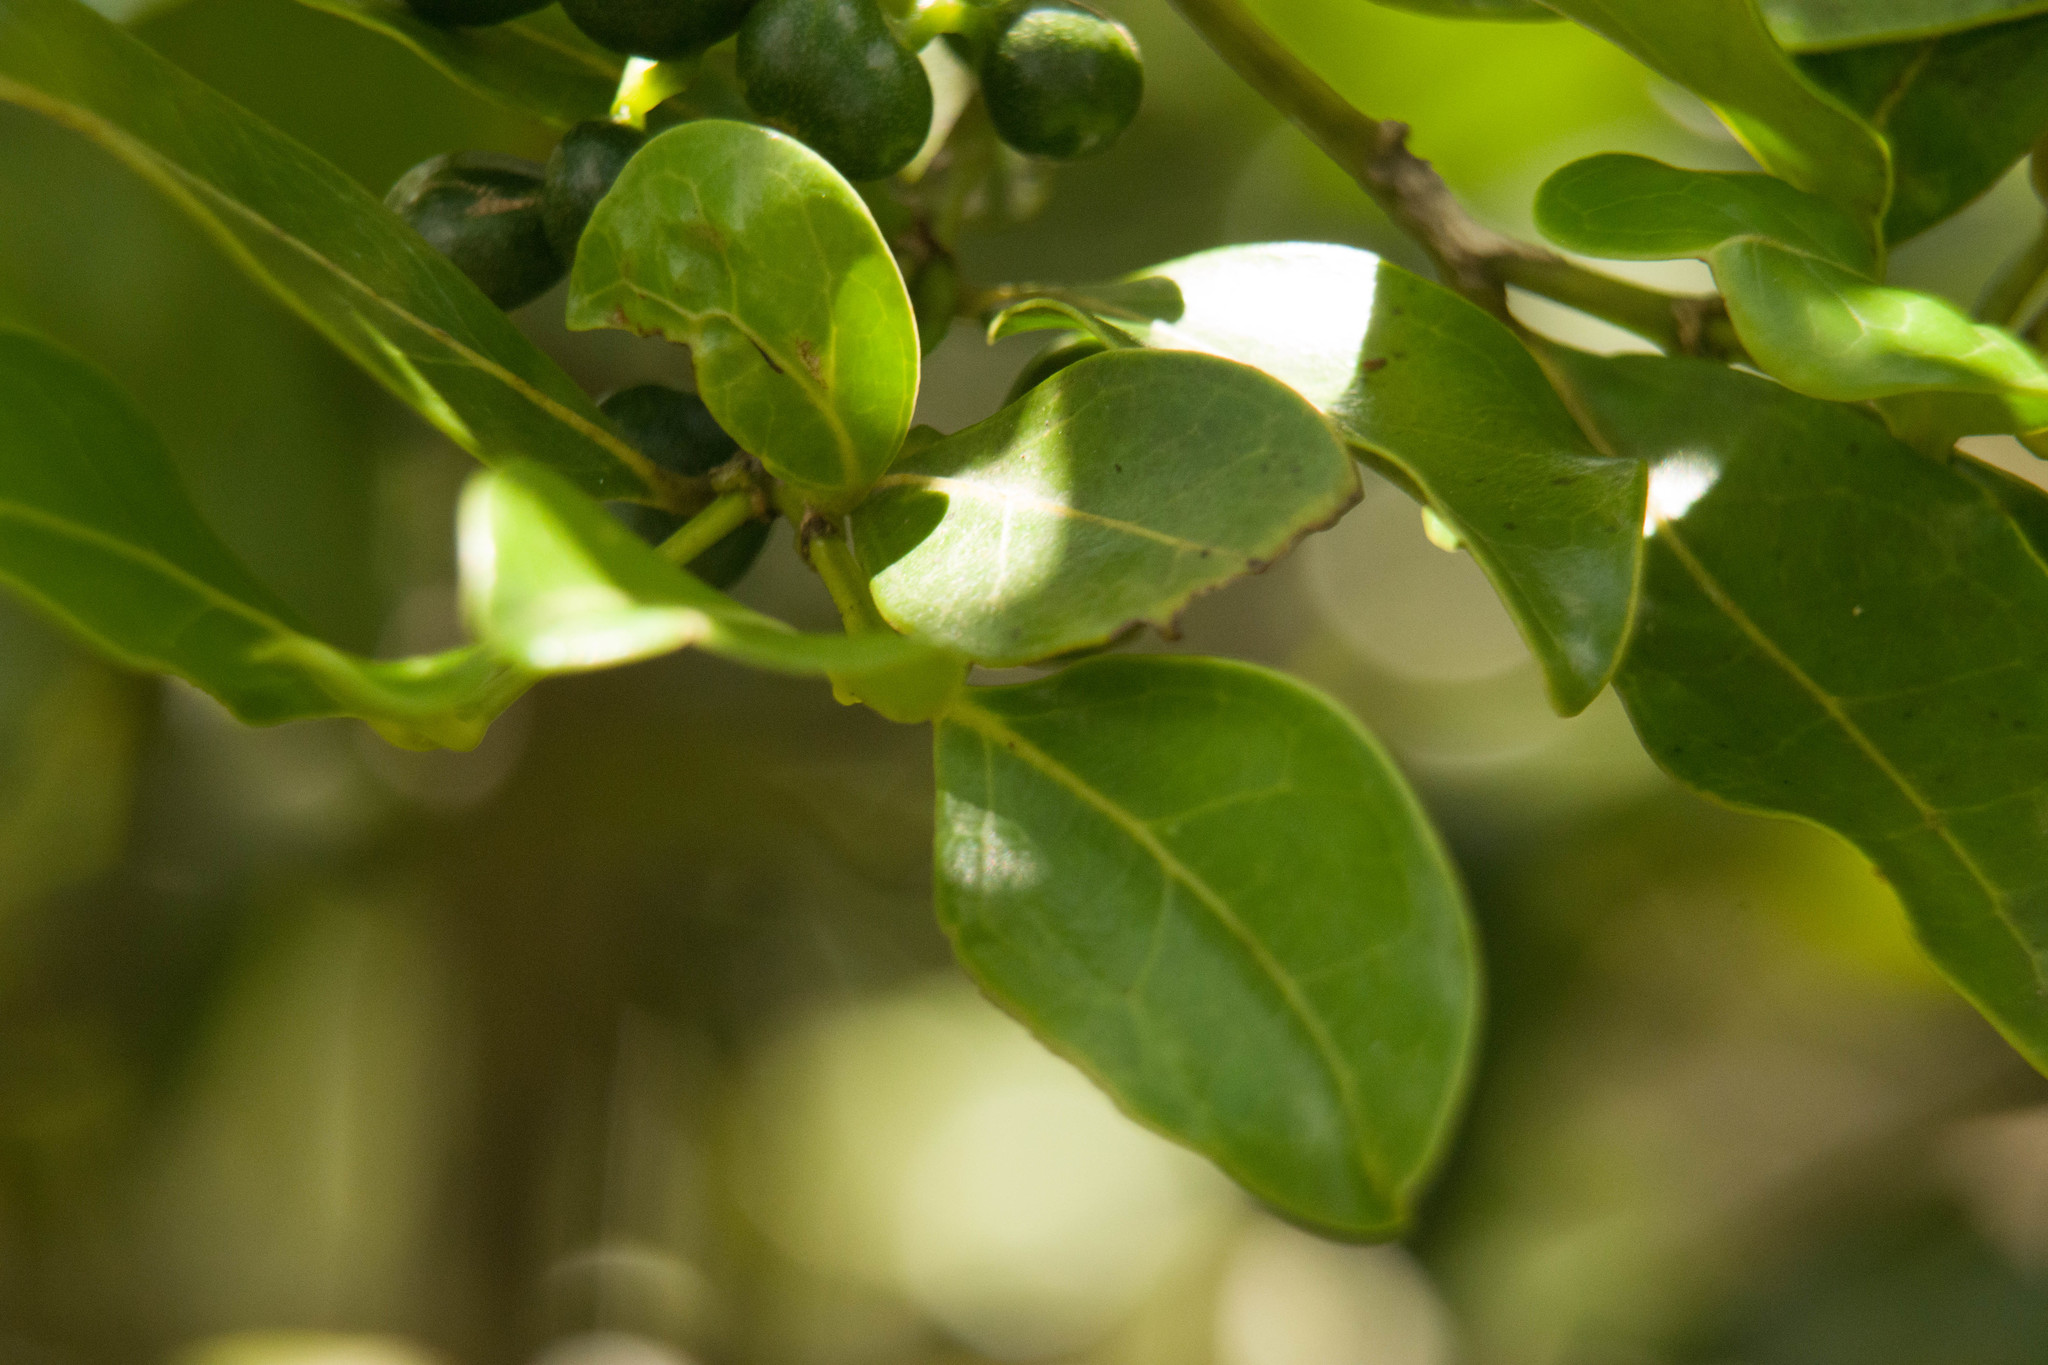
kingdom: Plantae
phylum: Tracheophyta
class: Magnoliopsida
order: Gentianales
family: Rubiaceae
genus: Psydrax
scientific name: Psydrax odoratus
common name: Alahe'e
